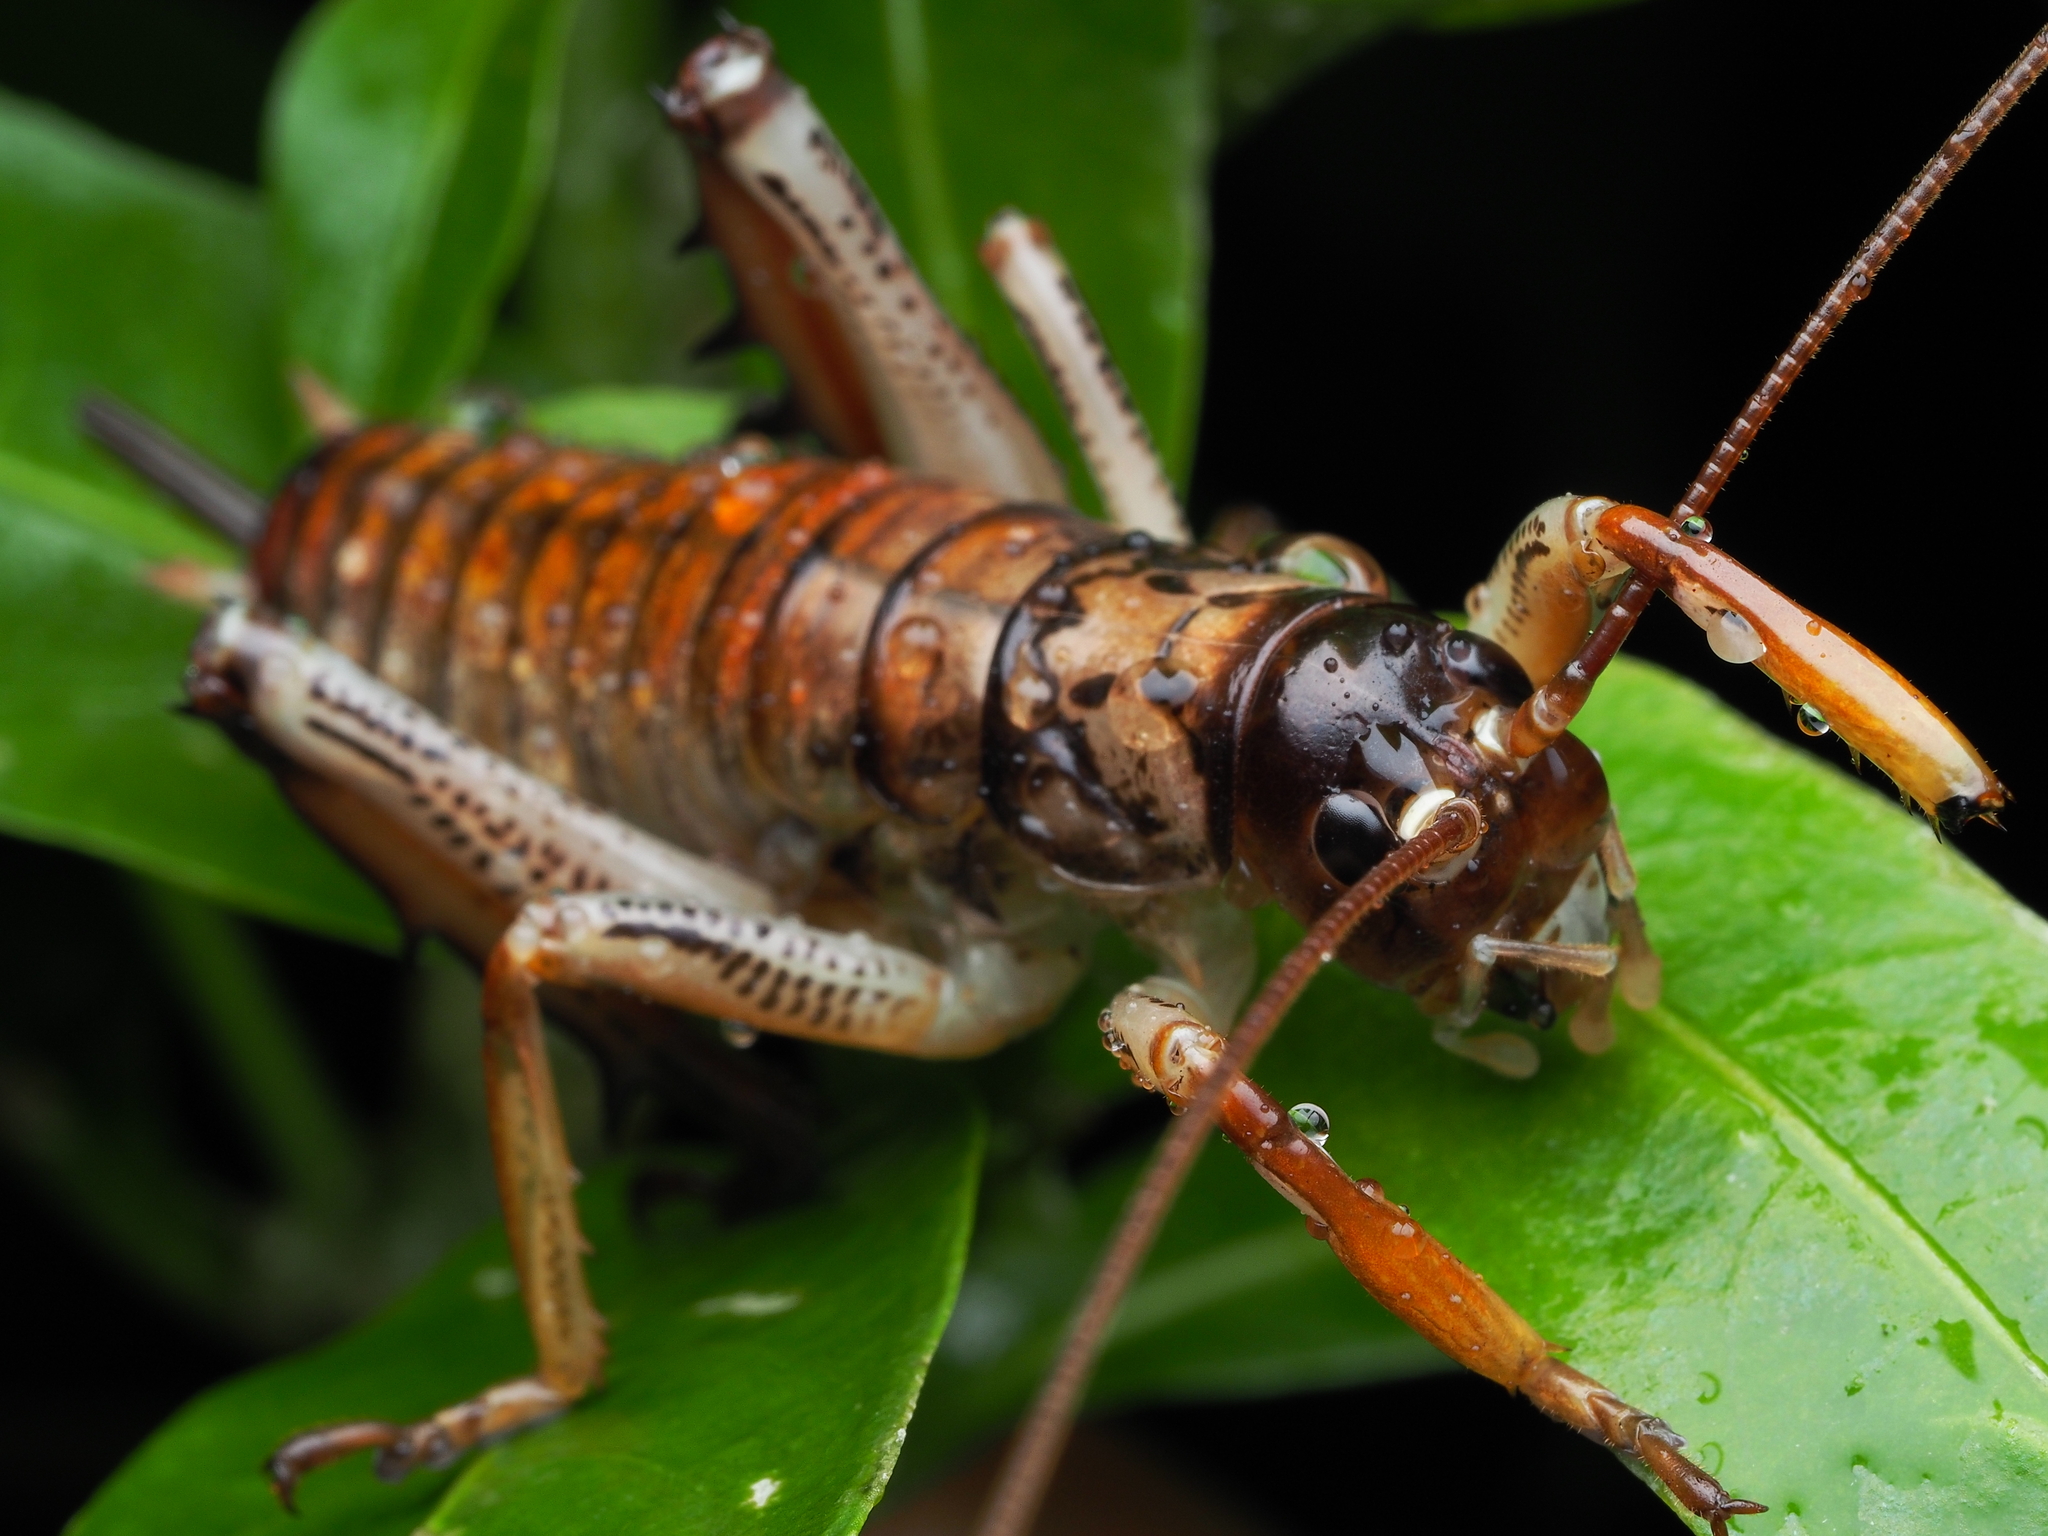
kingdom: Animalia
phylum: Arthropoda
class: Insecta
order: Orthoptera
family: Anostostomatidae
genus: Hemideina
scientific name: Hemideina thoracica
